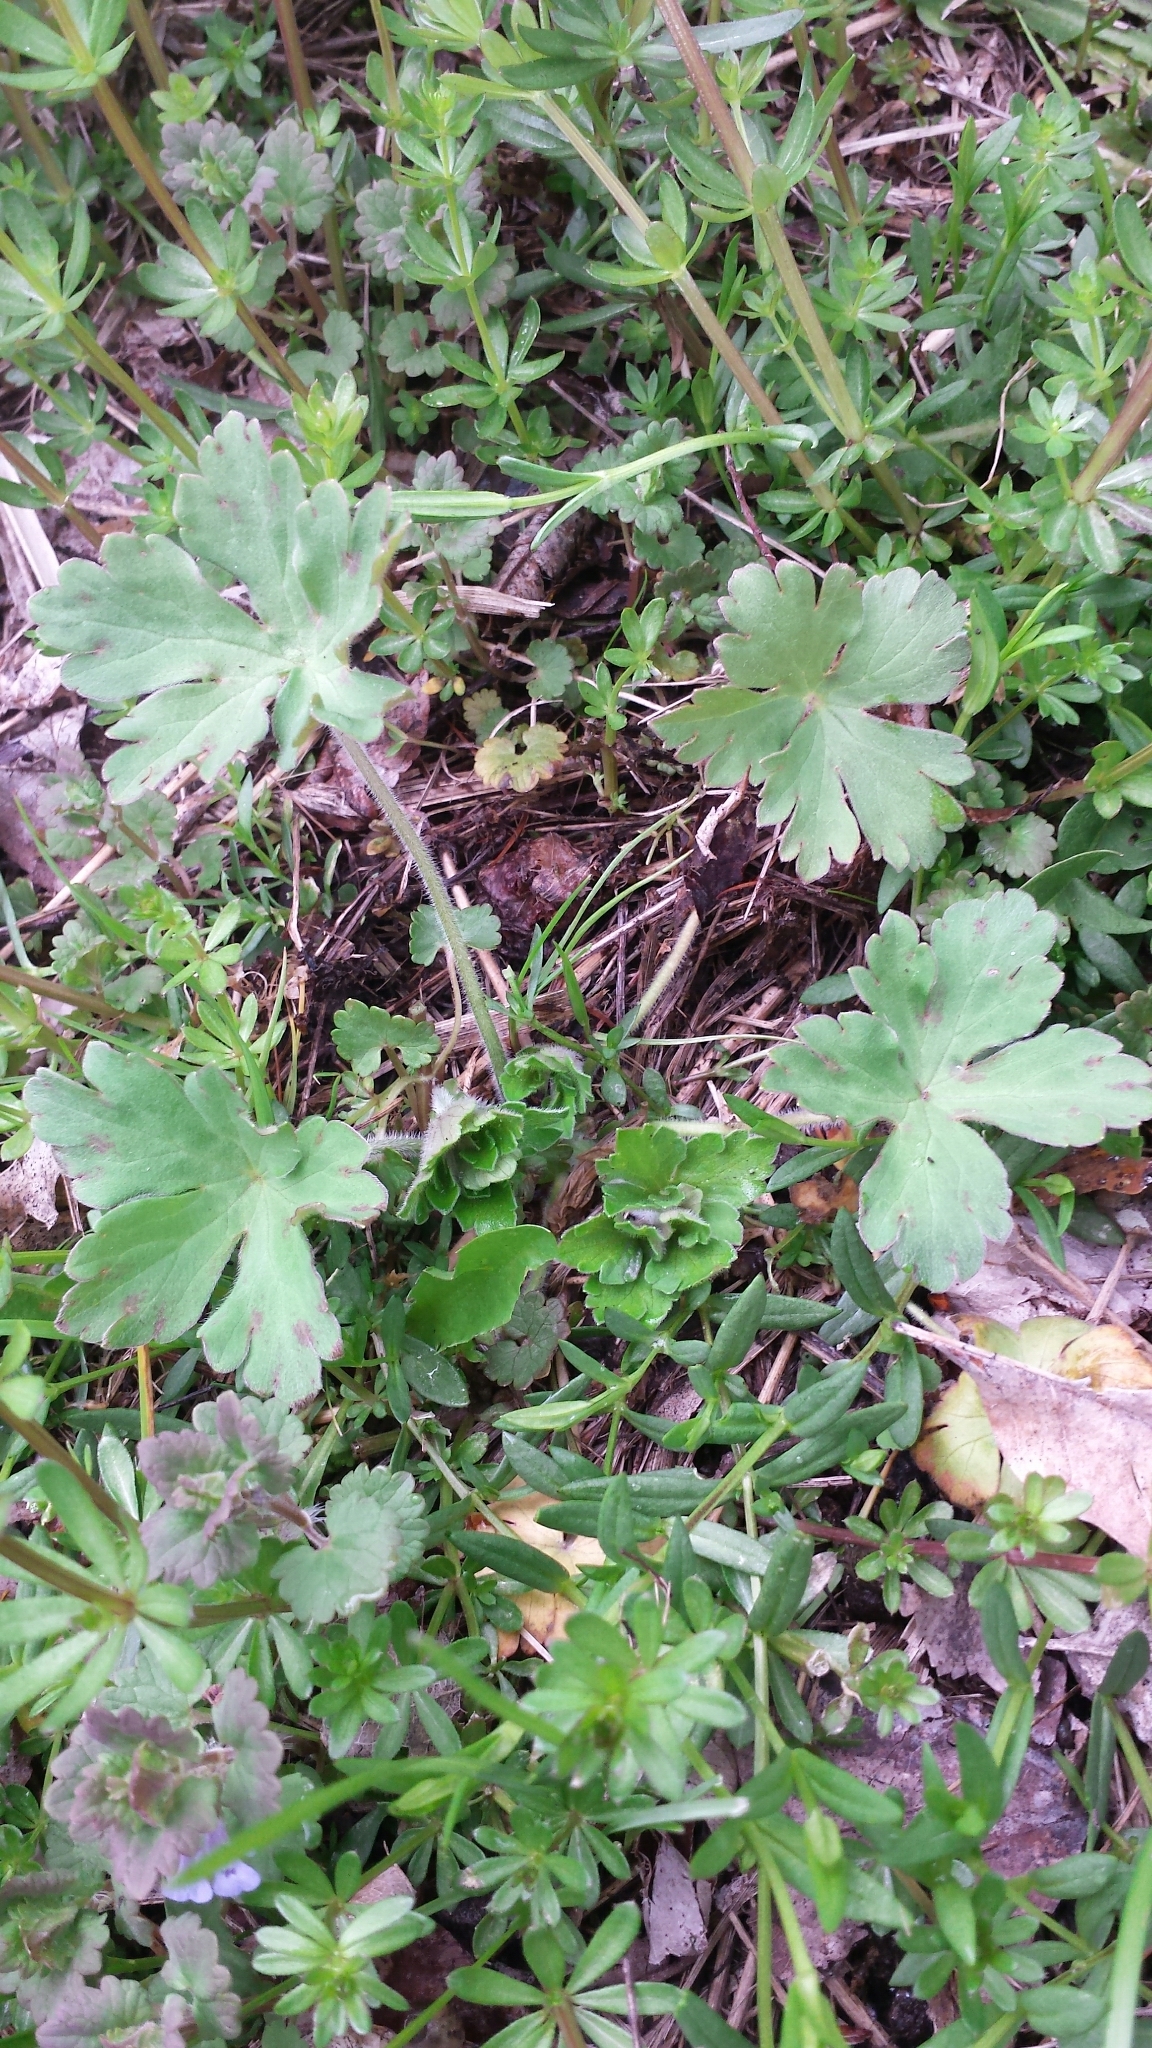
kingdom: Plantae
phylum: Tracheophyta
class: Magnoliopsida
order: Geraniales
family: Geraniaceae
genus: Geranium
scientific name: Geranium thunbergii
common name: Dewdrop crane's-bill
